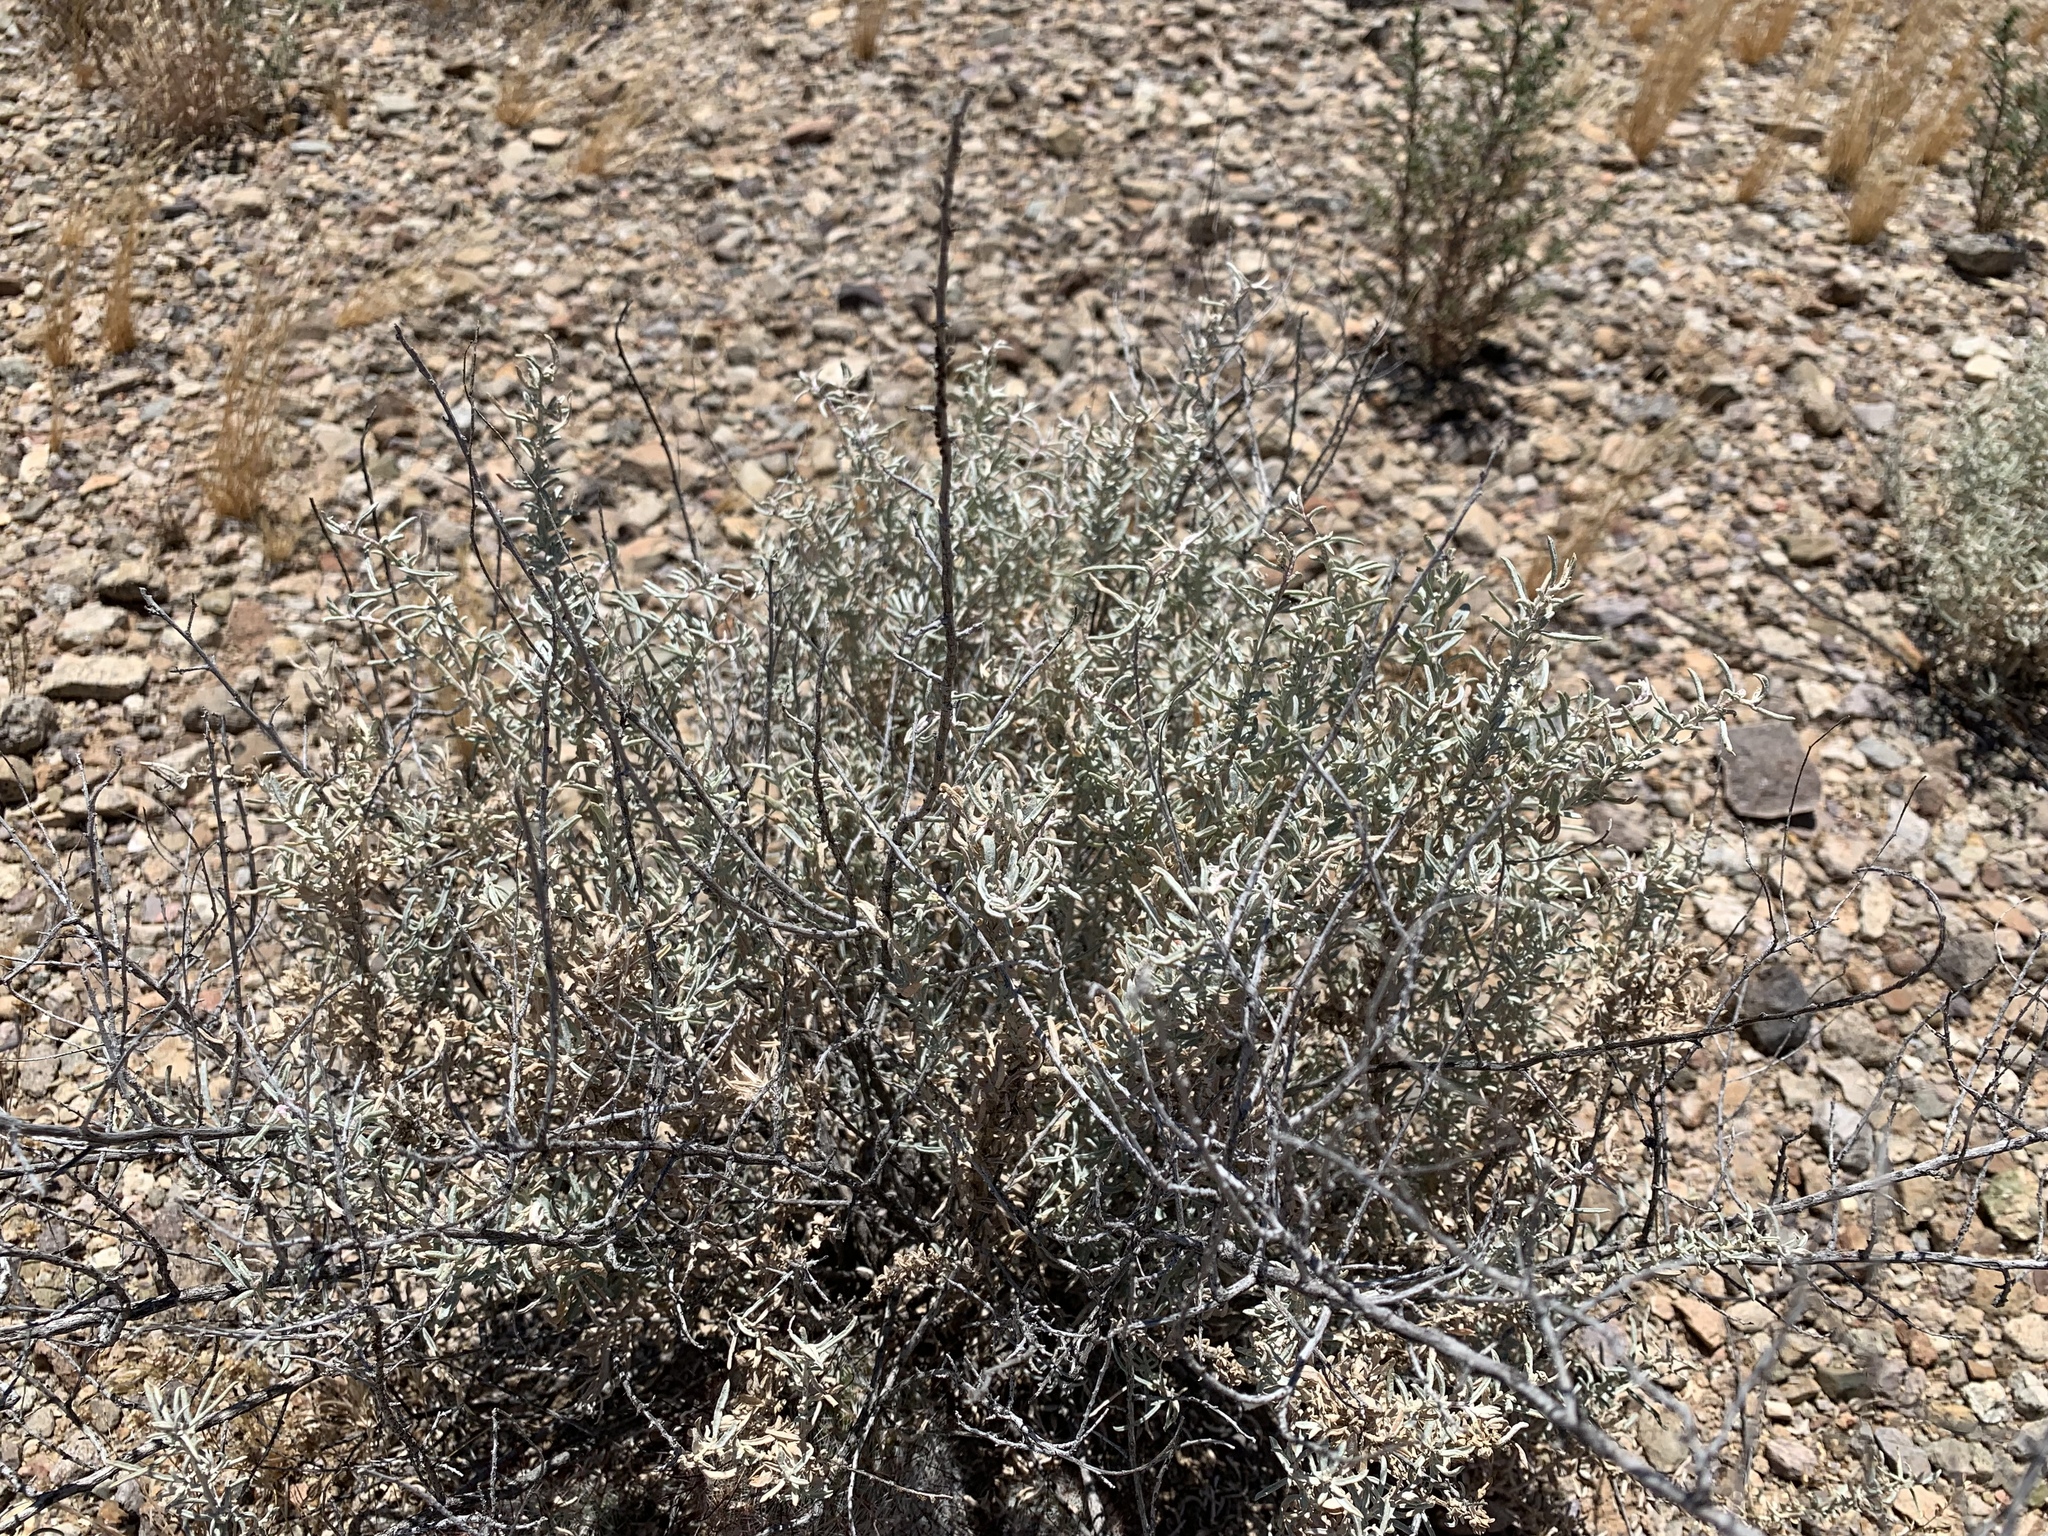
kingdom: Plantae
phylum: Tracheophyta
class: Magnoliopsida
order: Zygophyllales
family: Krameriaceae
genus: Krameria
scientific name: Krameria bicolor
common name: White ratany
